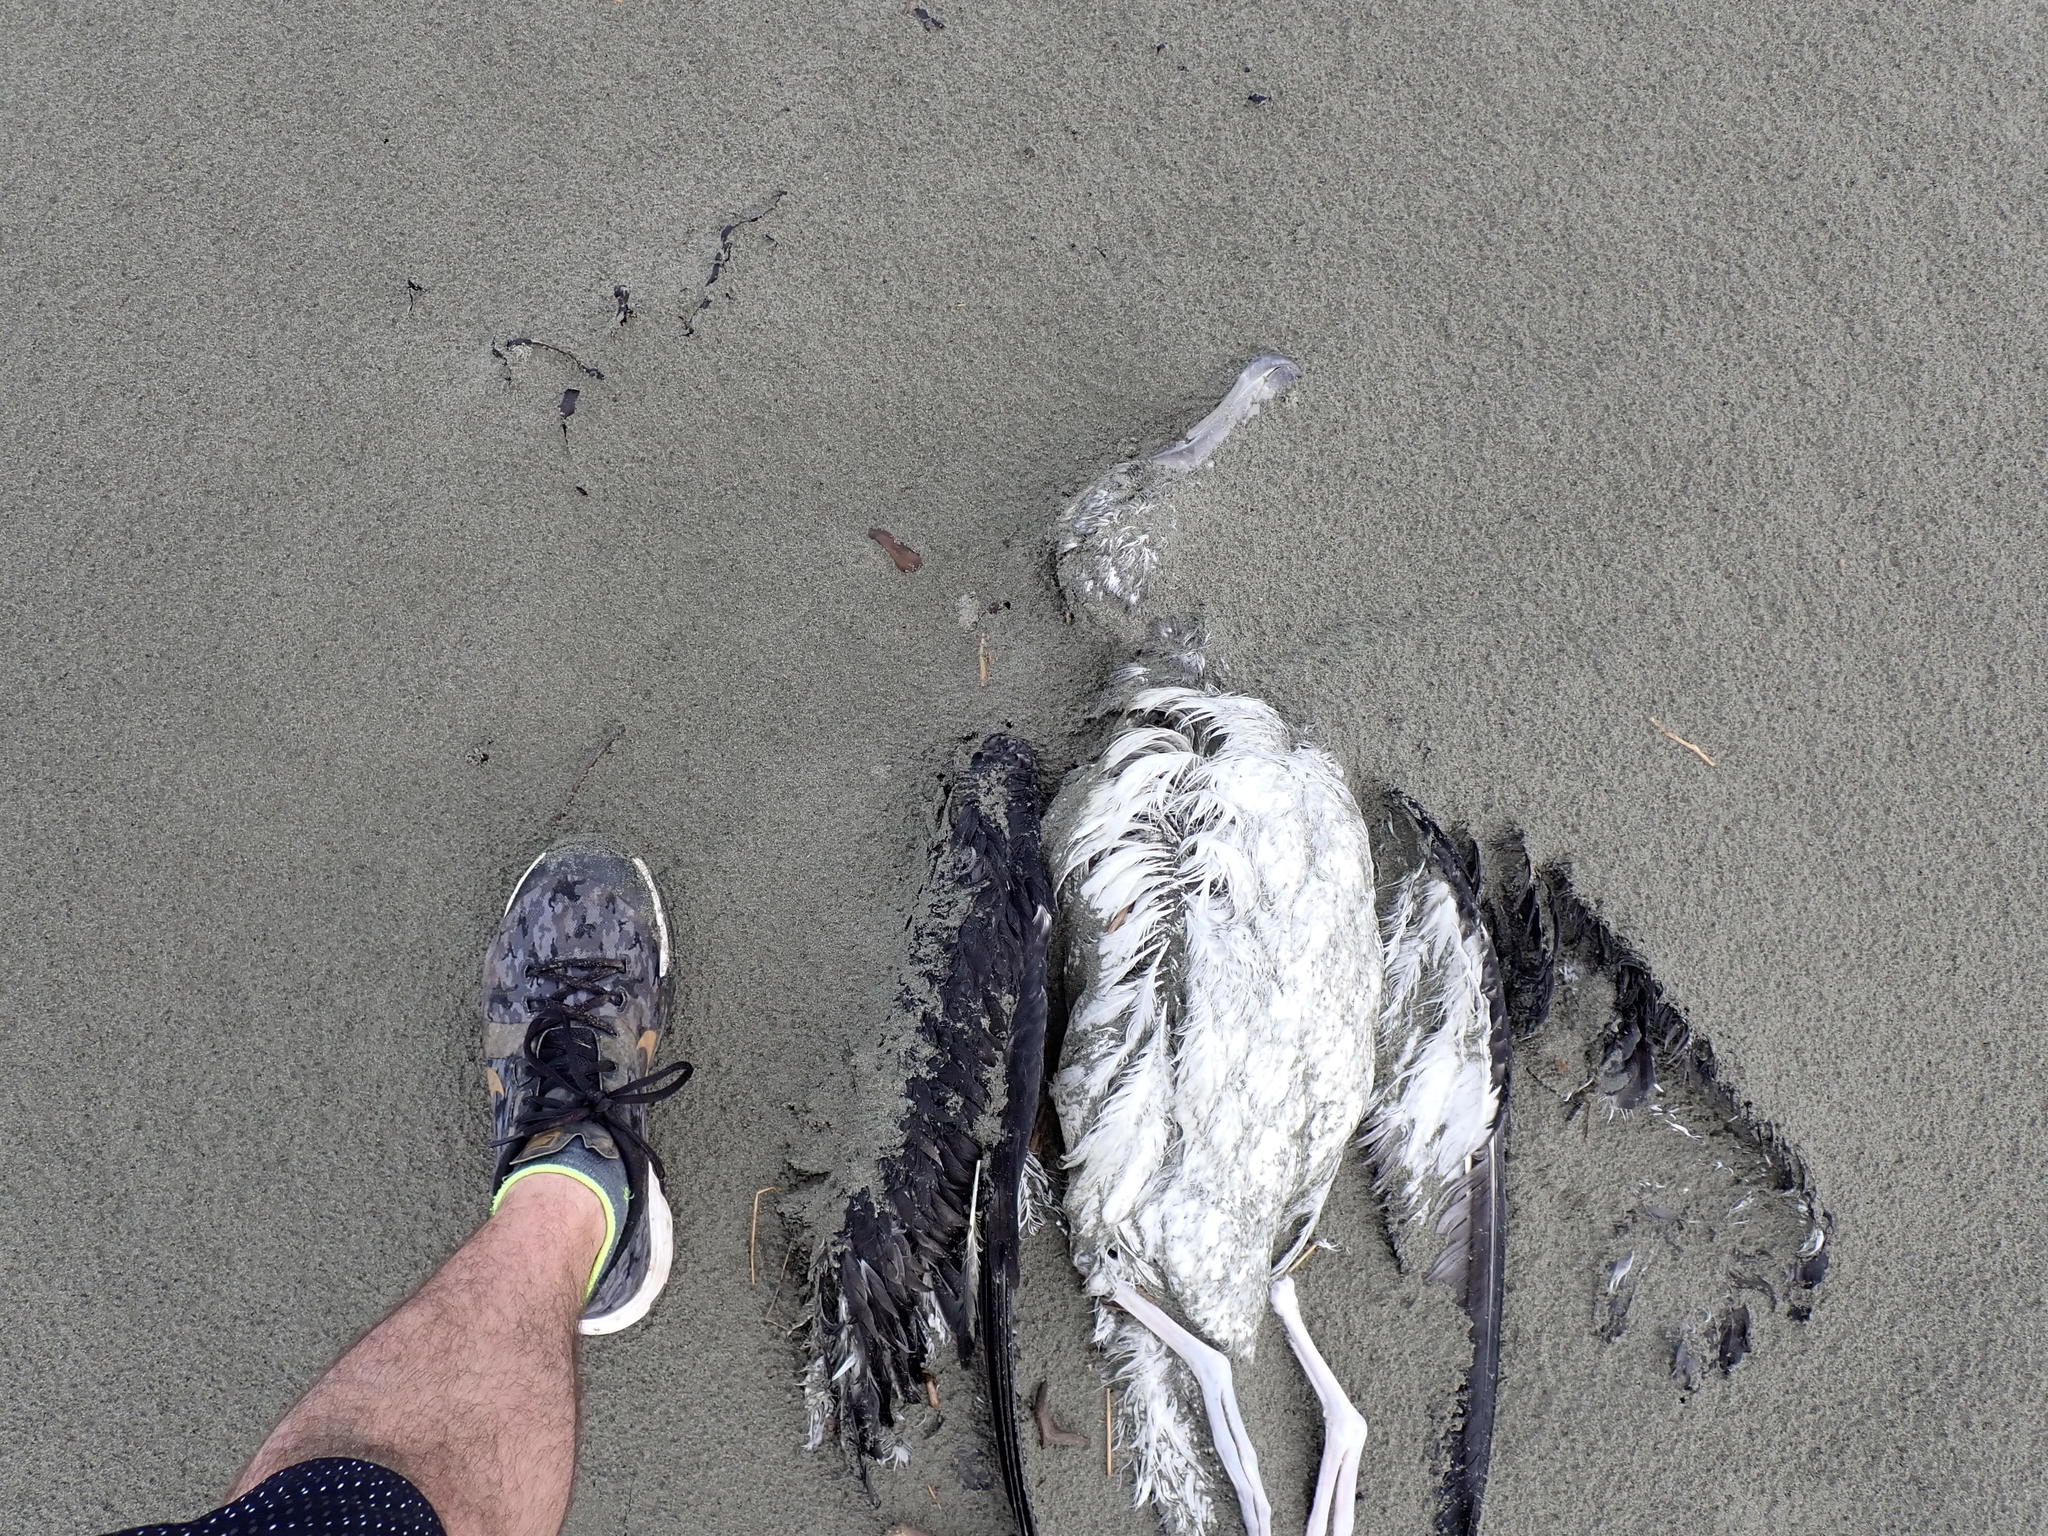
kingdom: Animalia
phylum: Chordata
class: Aves
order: Procellariiformes
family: Diomedeidae
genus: Thalassarche
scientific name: Thalassarche bulleri
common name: Buller's albatross
